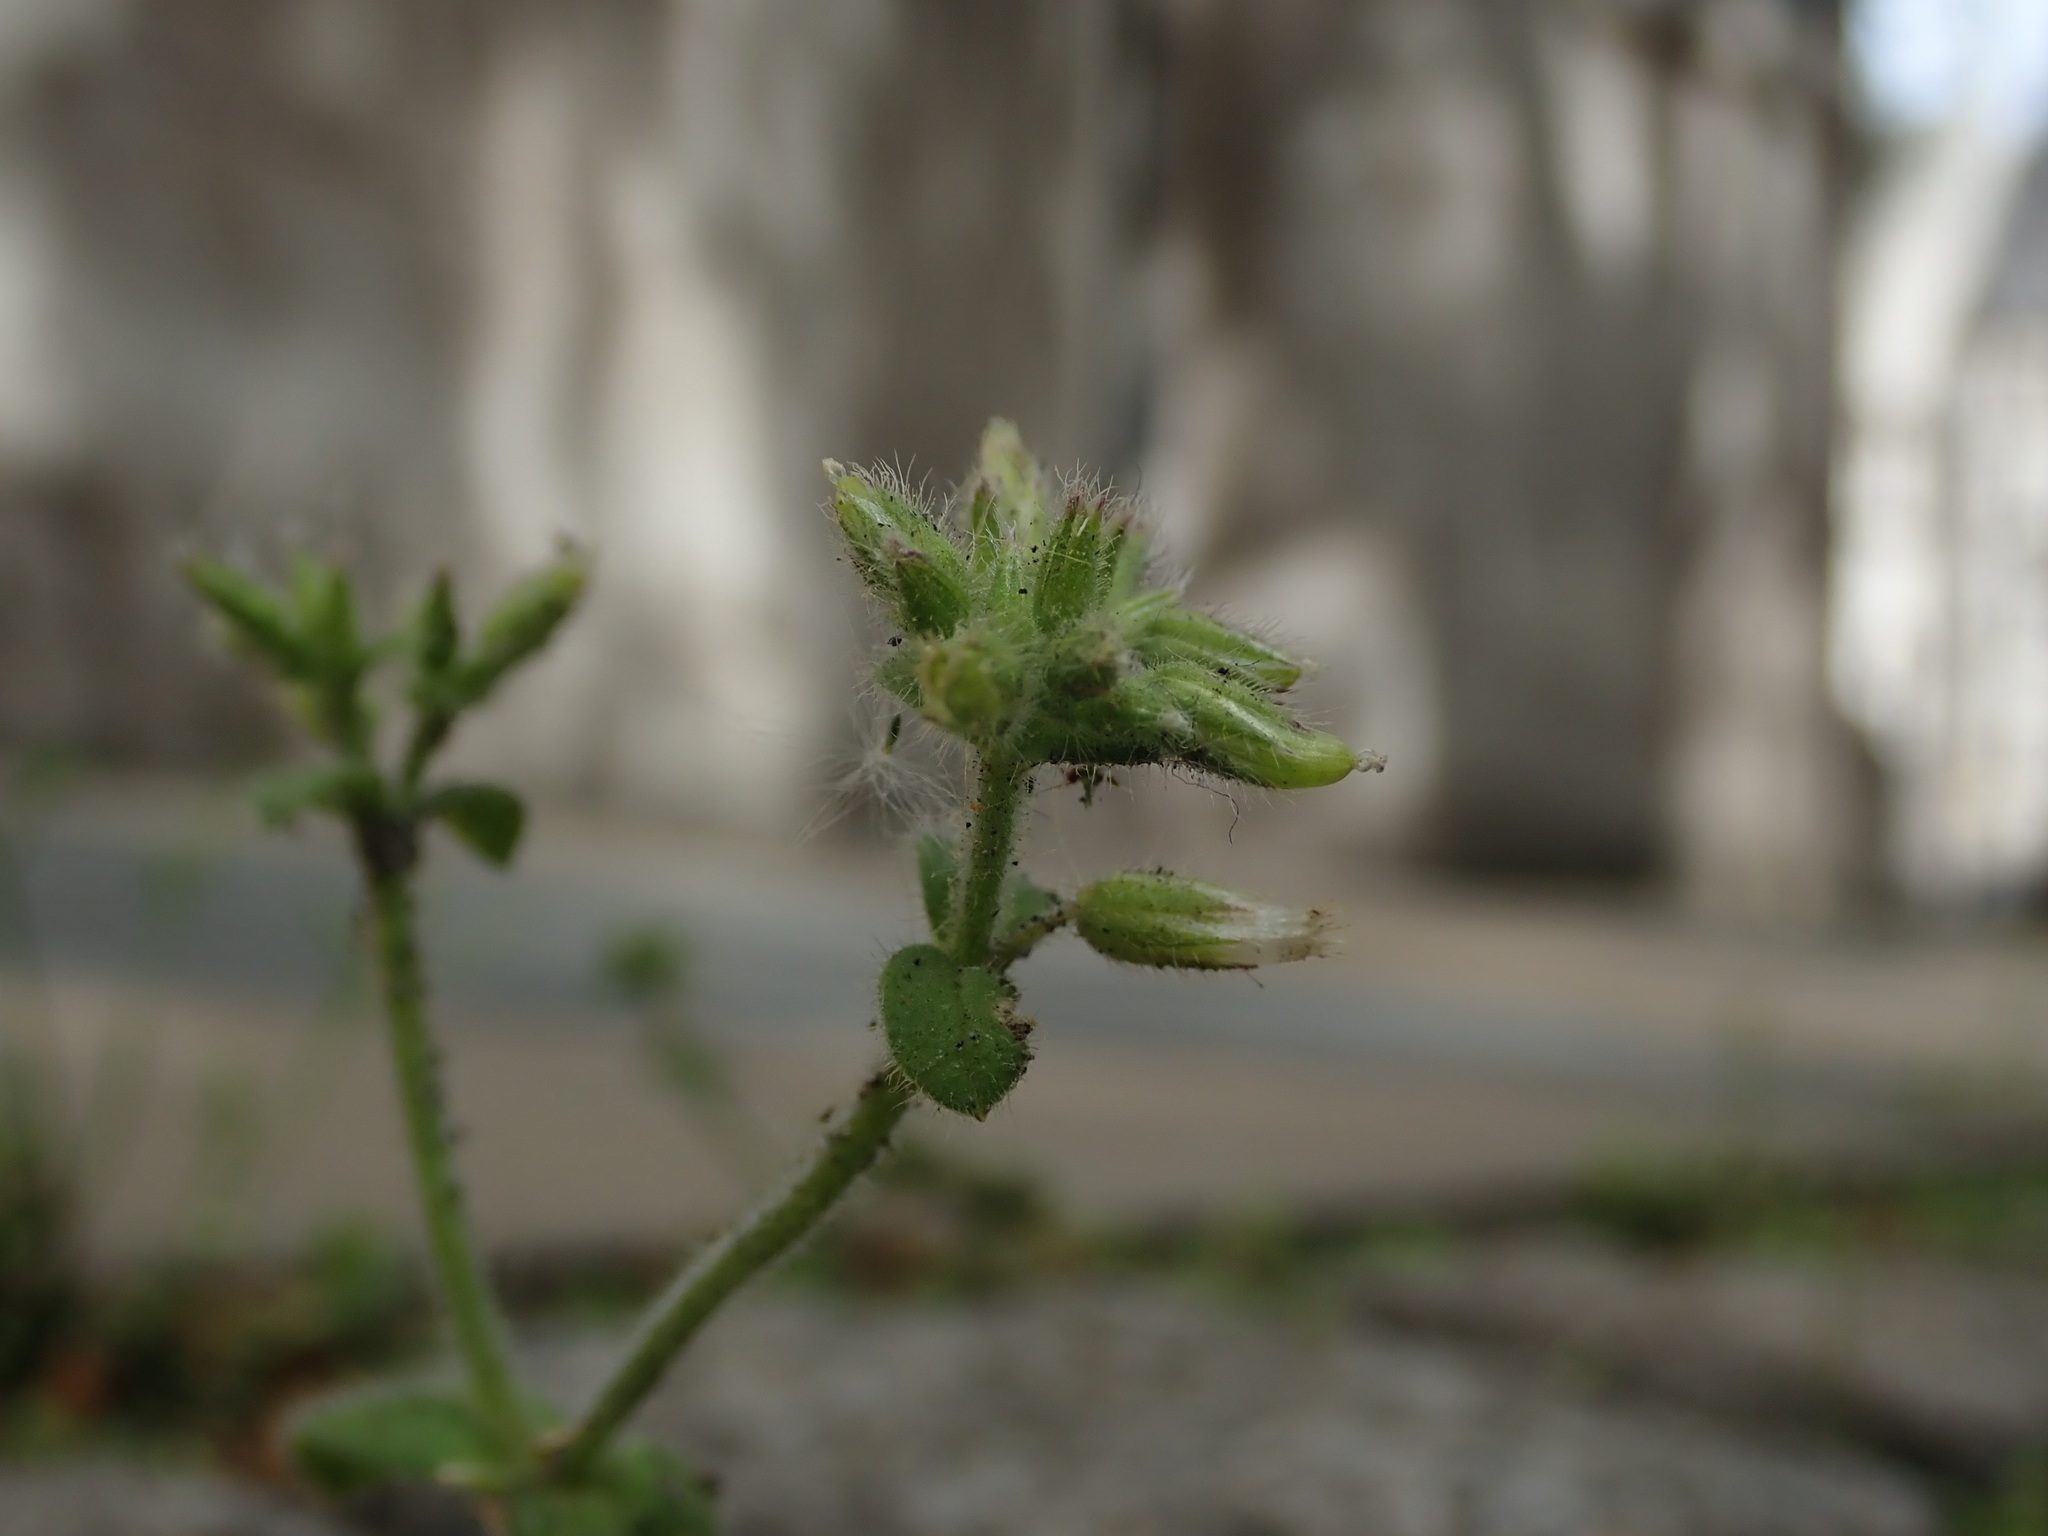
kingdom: Plantae
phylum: Tracheophyta
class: Magnoliopsida
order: Caryophyllales
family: Caryophyllaceae
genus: Cerastium
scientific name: Cerastium glomeratum
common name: Sticky chickweed
